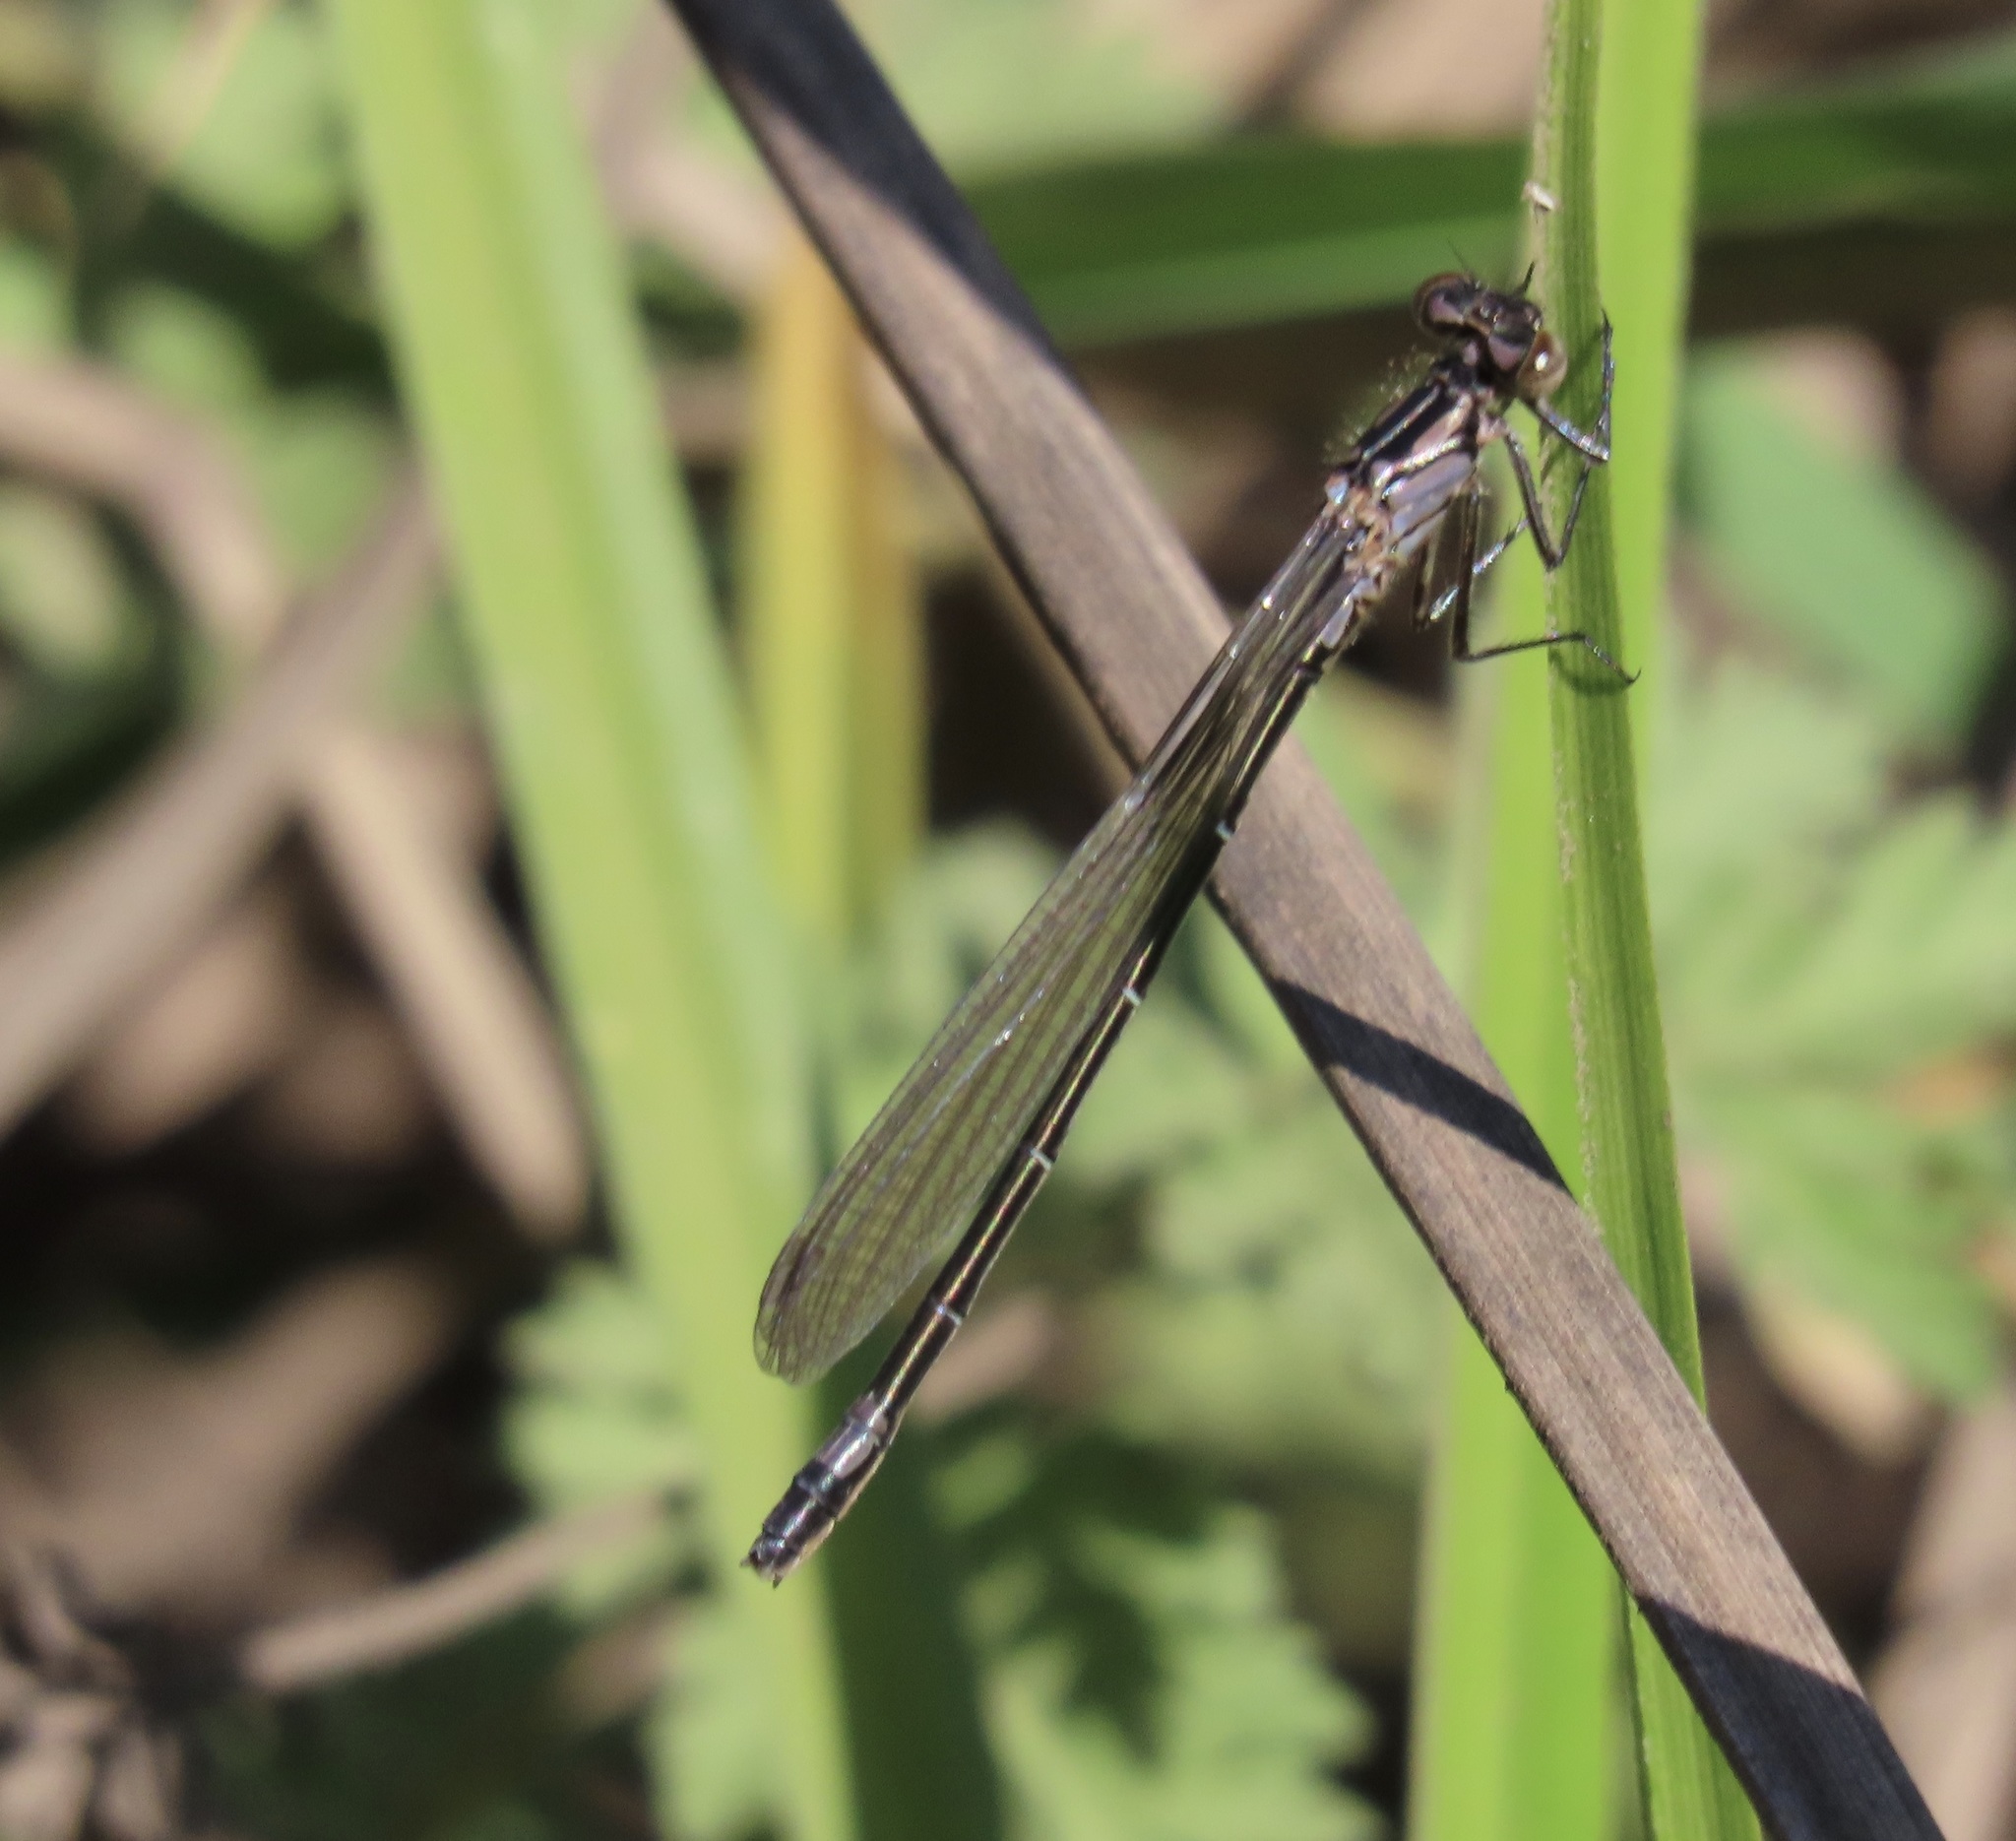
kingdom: Animalia
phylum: Arthropoda
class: Insecta
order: Odonata
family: Coenagrionidae
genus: Ischnura
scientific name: Ischnura cervula
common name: Pacific forktail
